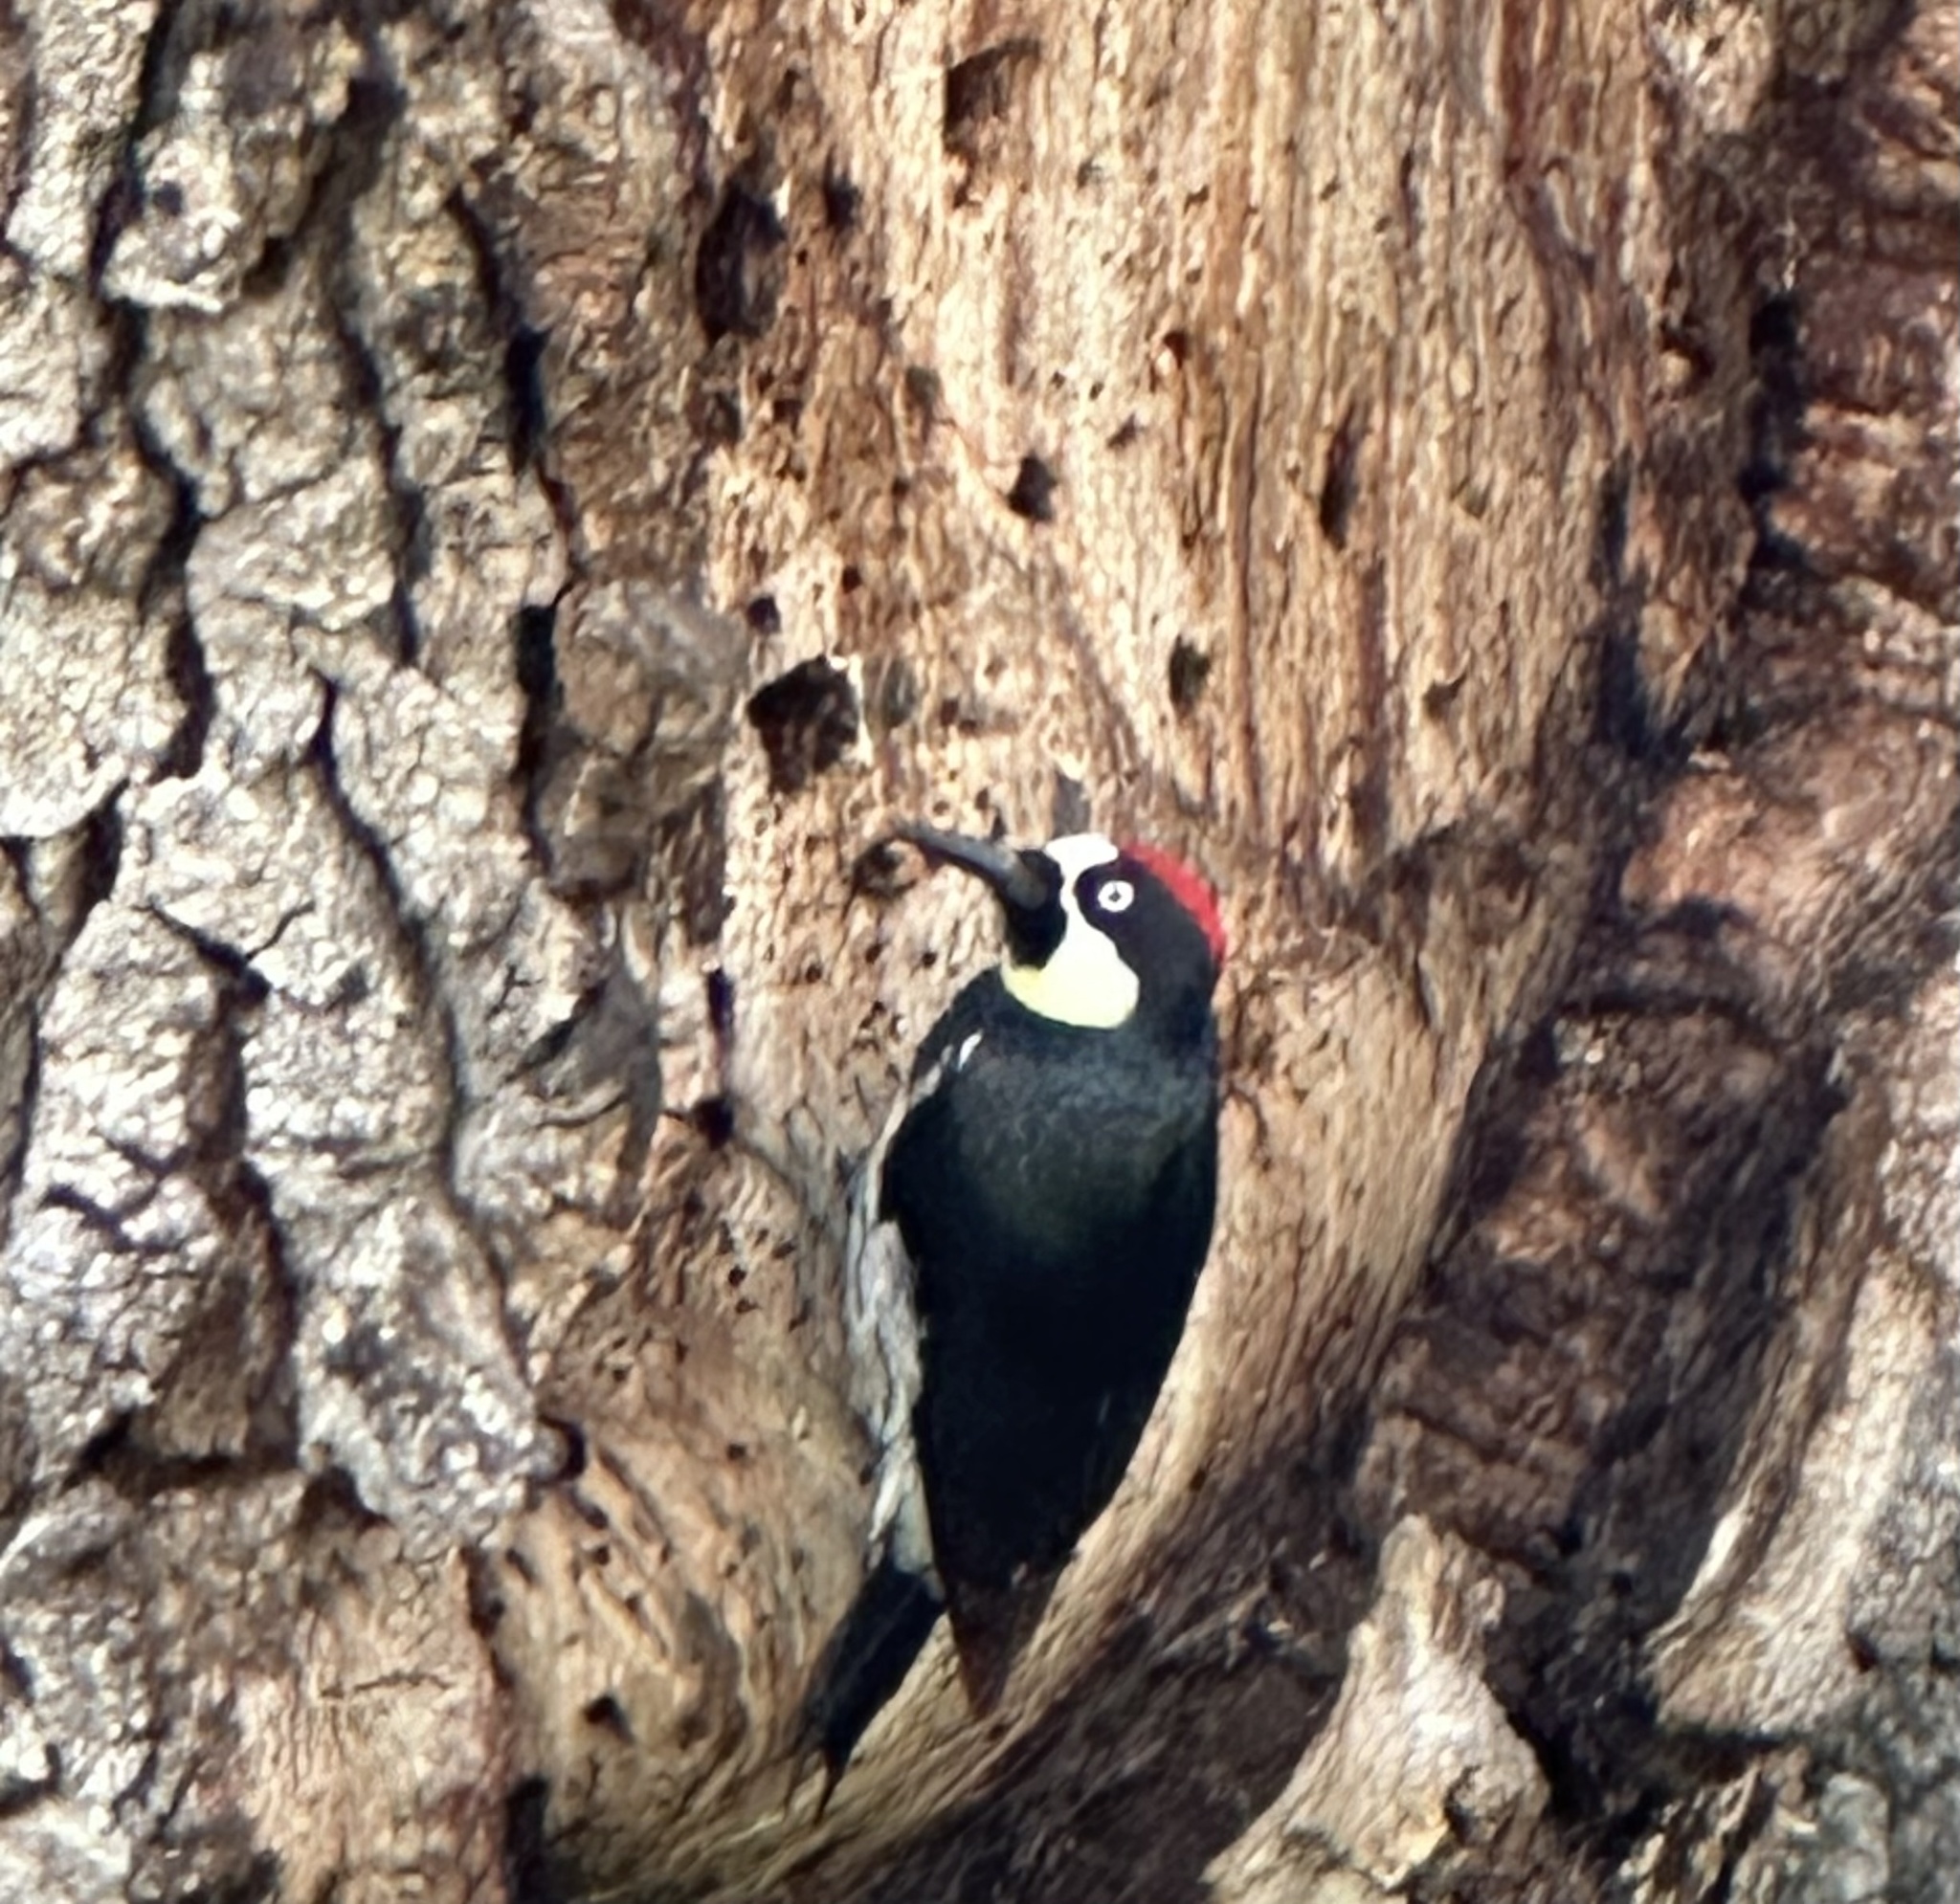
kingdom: Animalia
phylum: Chordata
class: Aves
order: Piciformes
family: Picidae
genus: Melanerpes
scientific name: Melanerpes formicivorus
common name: Acorn woodpecker
